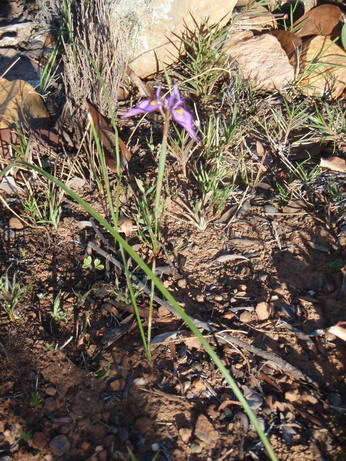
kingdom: Plantae
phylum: Tracheophyta
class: Liliopsida
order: Asparagales
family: Iridaceae
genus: Moraea
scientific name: Moraea algoensis
